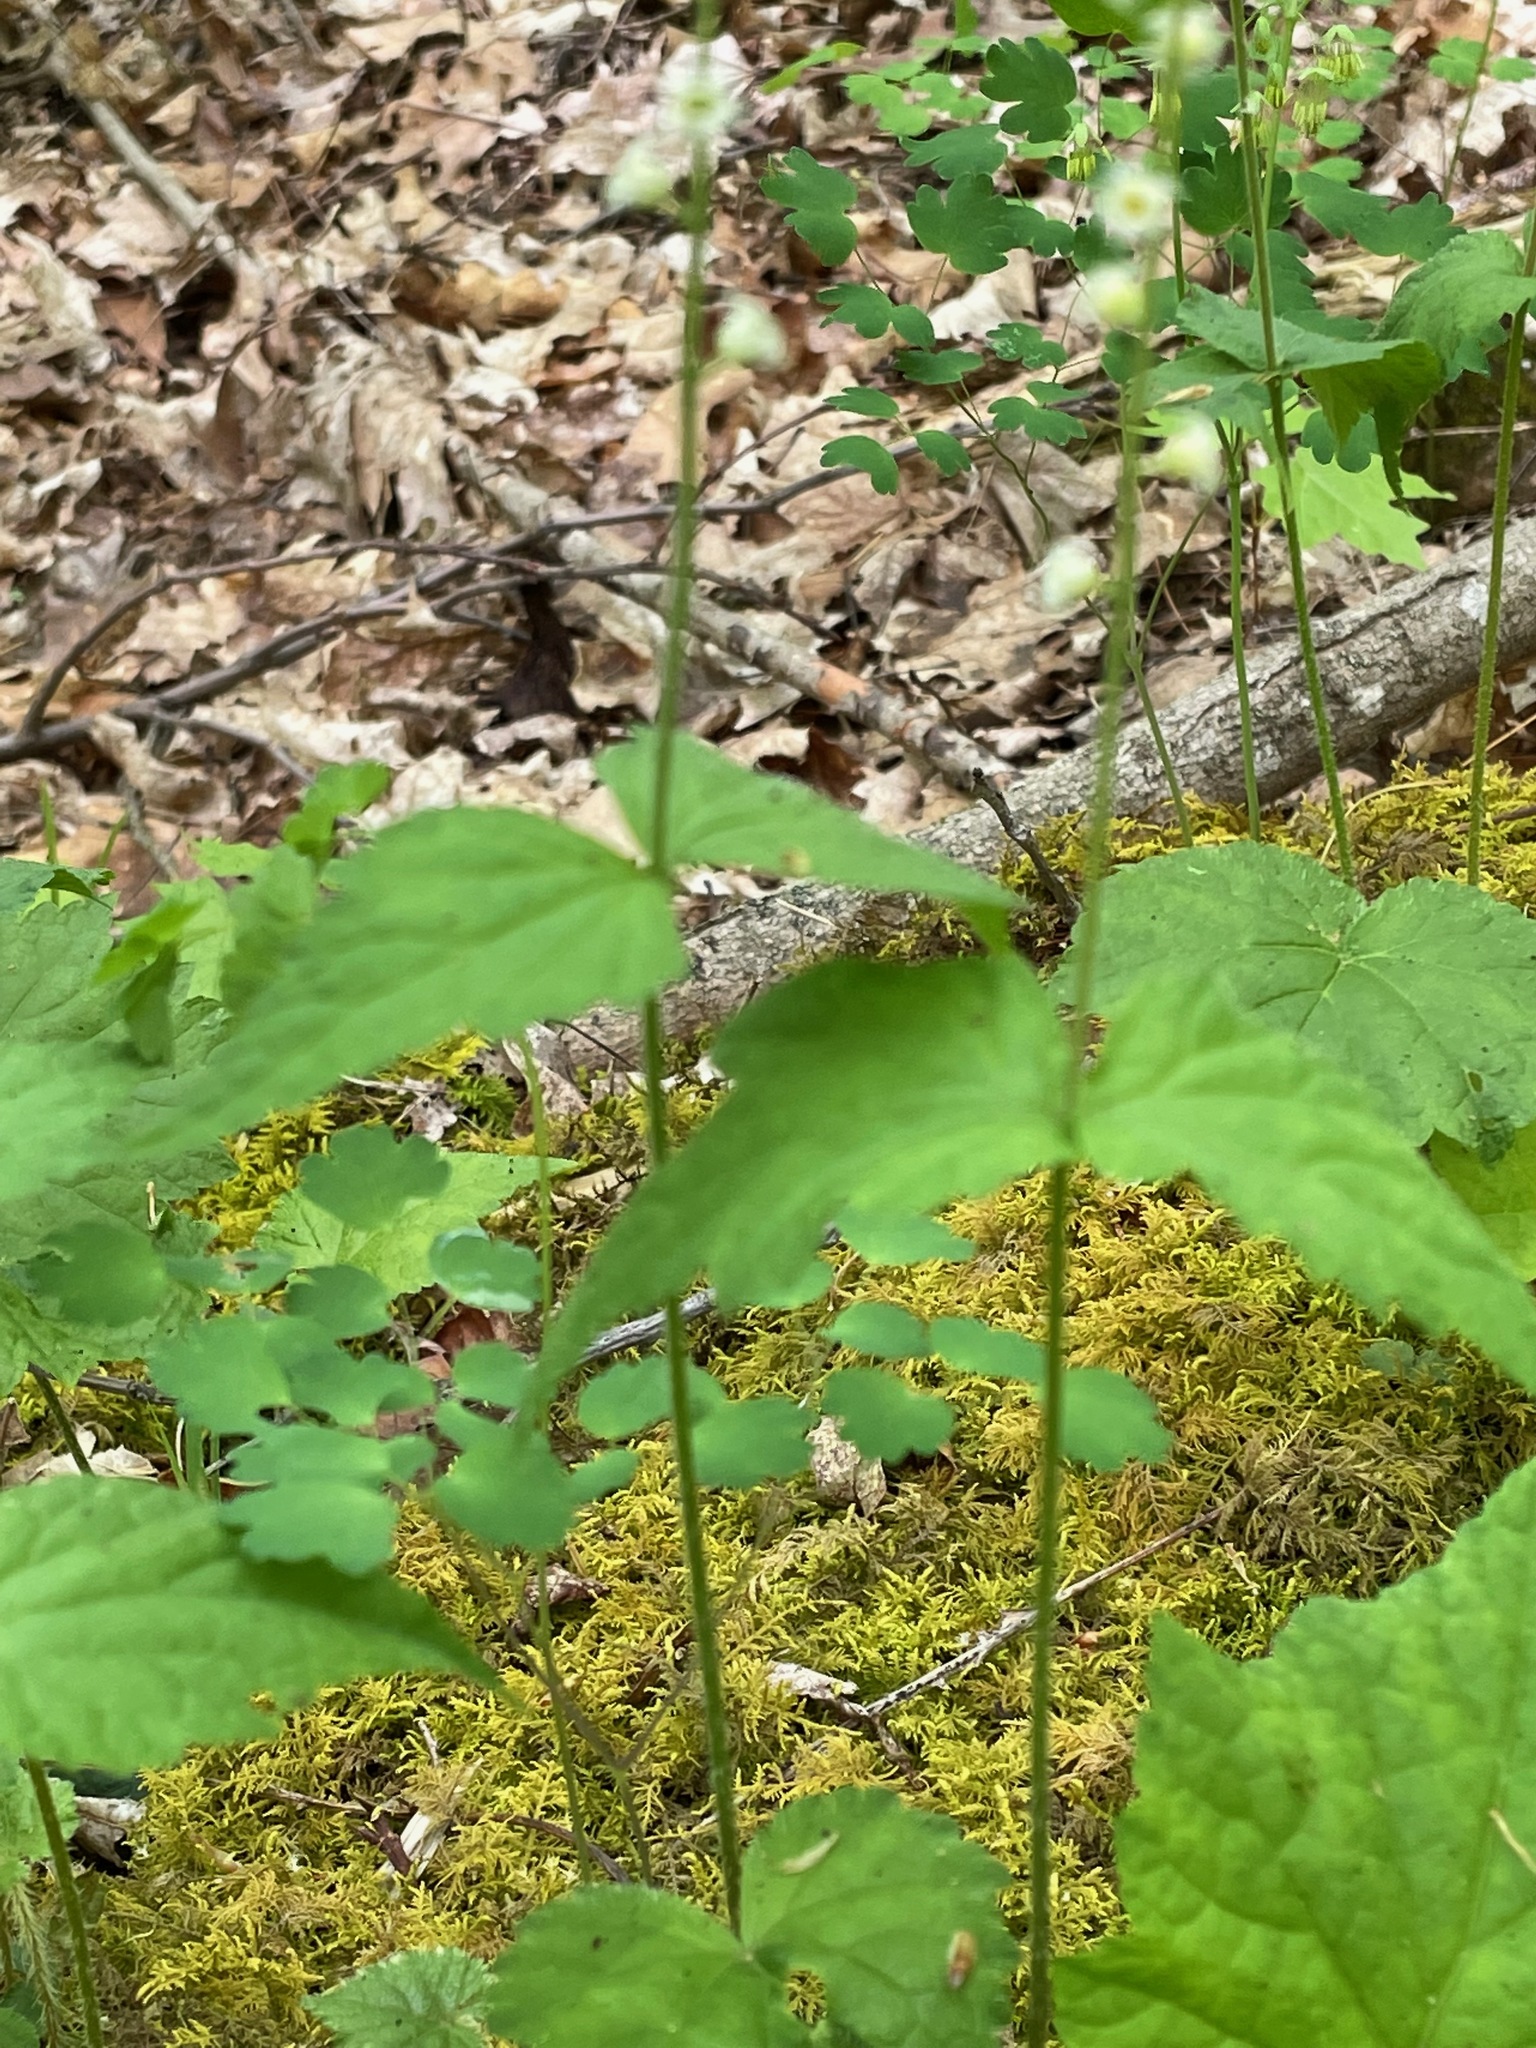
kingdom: Plantae
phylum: Tracheophyta
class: Magnoliopsida
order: Saxifragales
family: Saxifragaceae
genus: Mitella
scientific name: Mitella diphylla
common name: Coolwort
